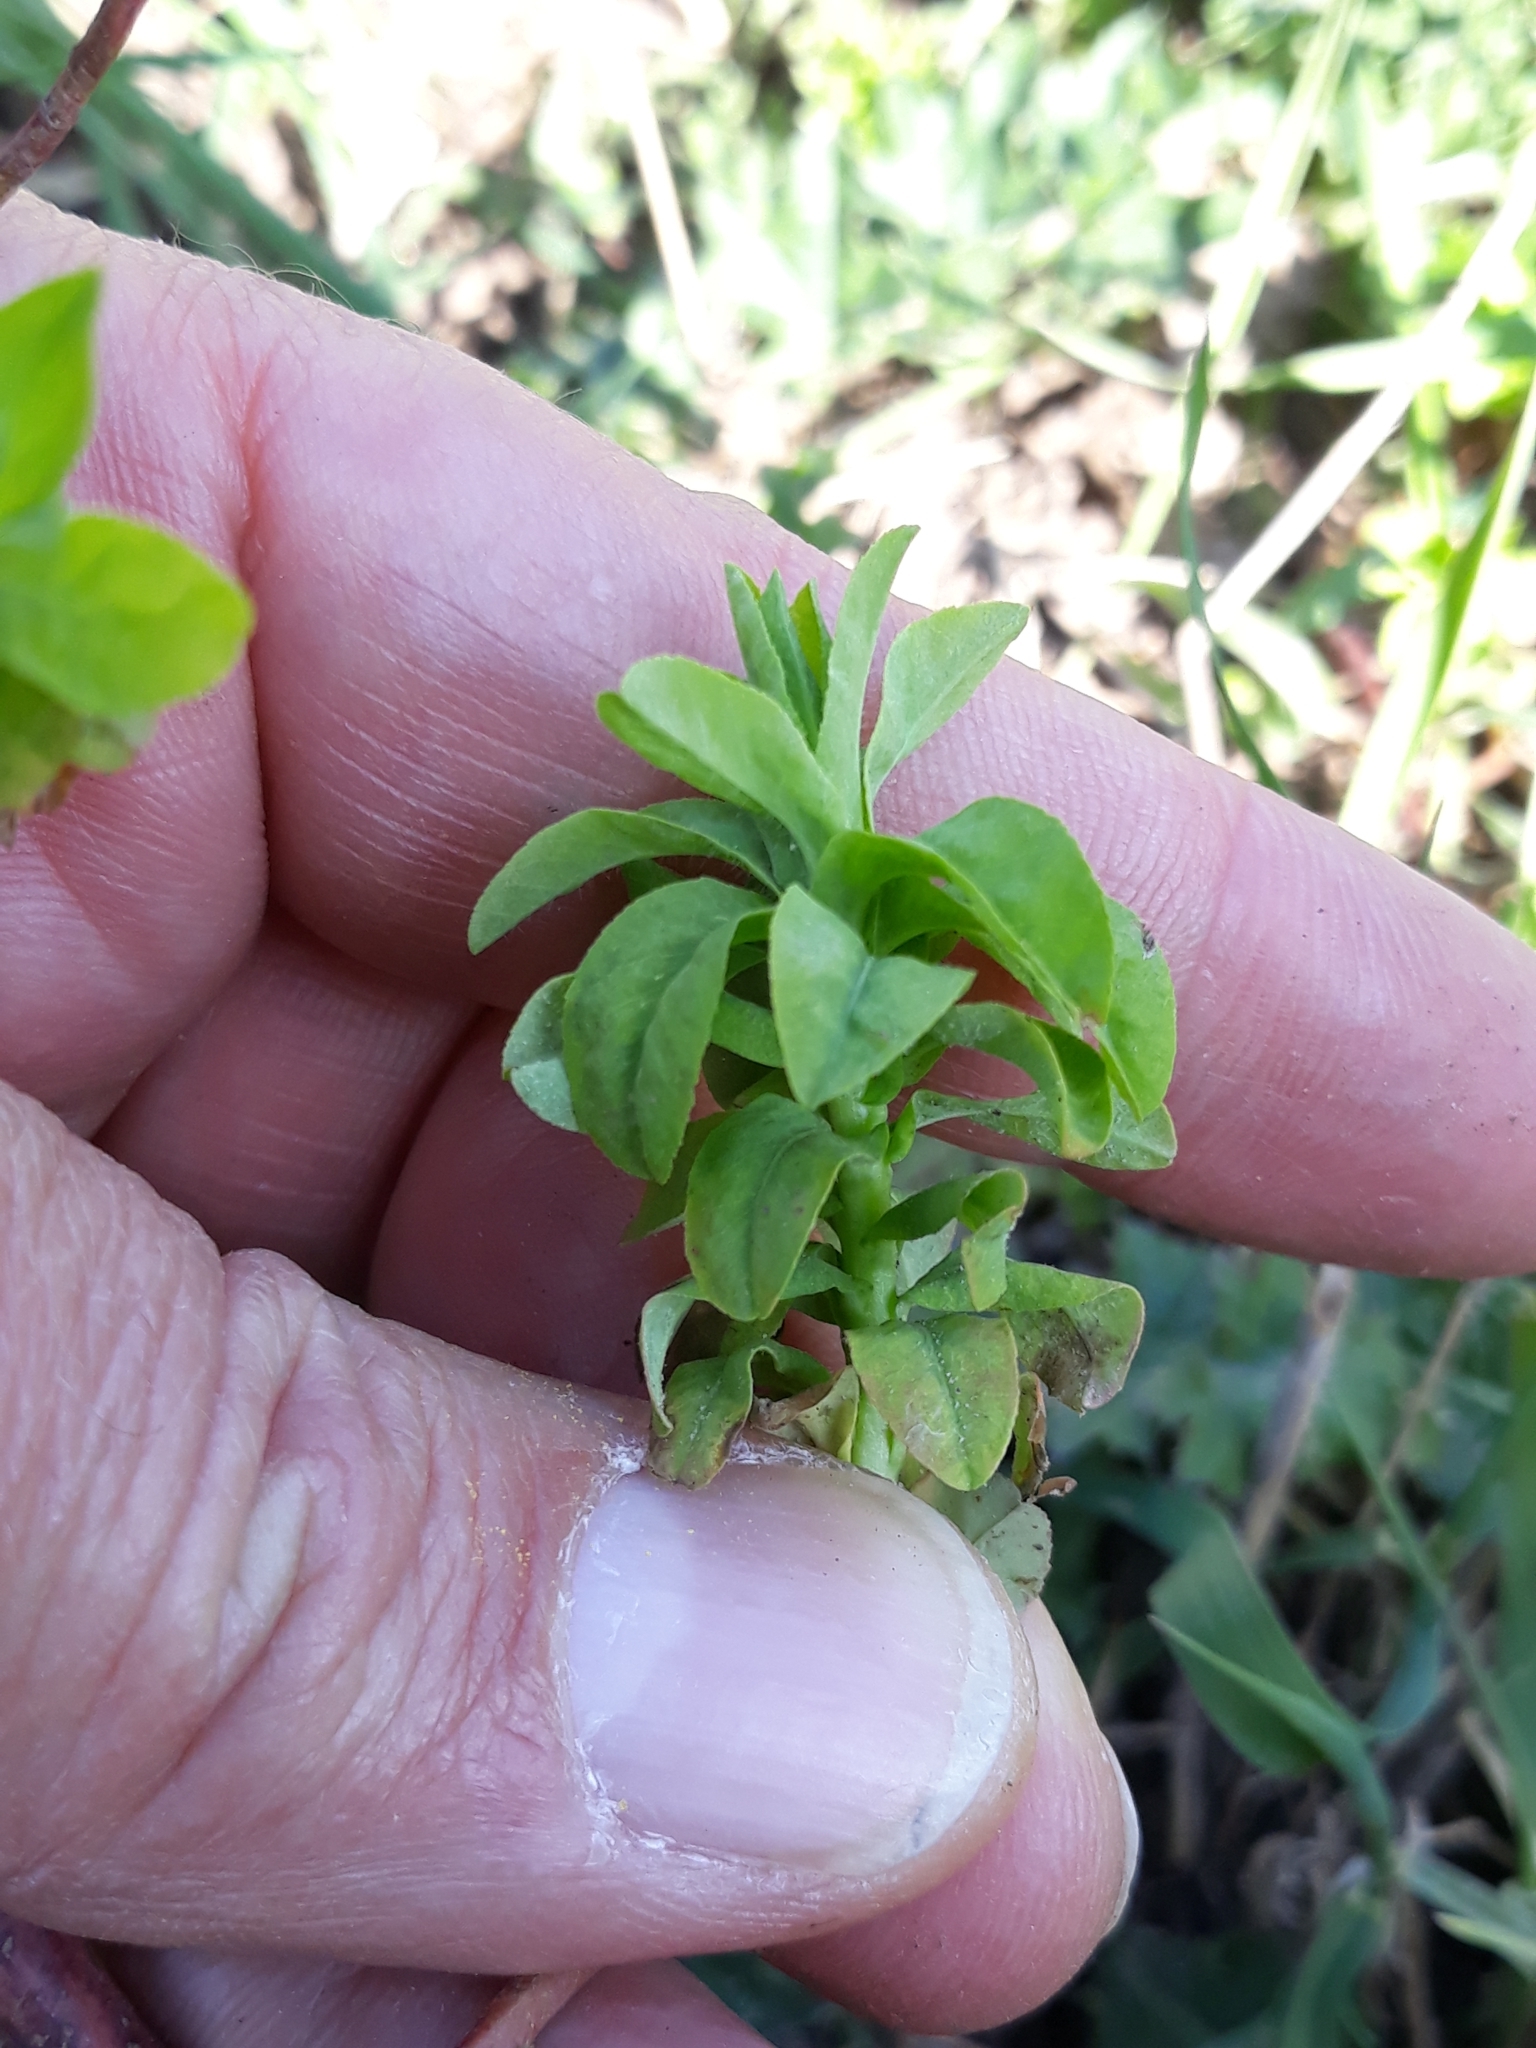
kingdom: Plantae
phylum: Tracheophyta
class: Magnoliopsida
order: Malpighiales
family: Euphorbiaceae
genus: Euphorbia
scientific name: Euphorbia platyphyllos
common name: Broad-leaved spurge
